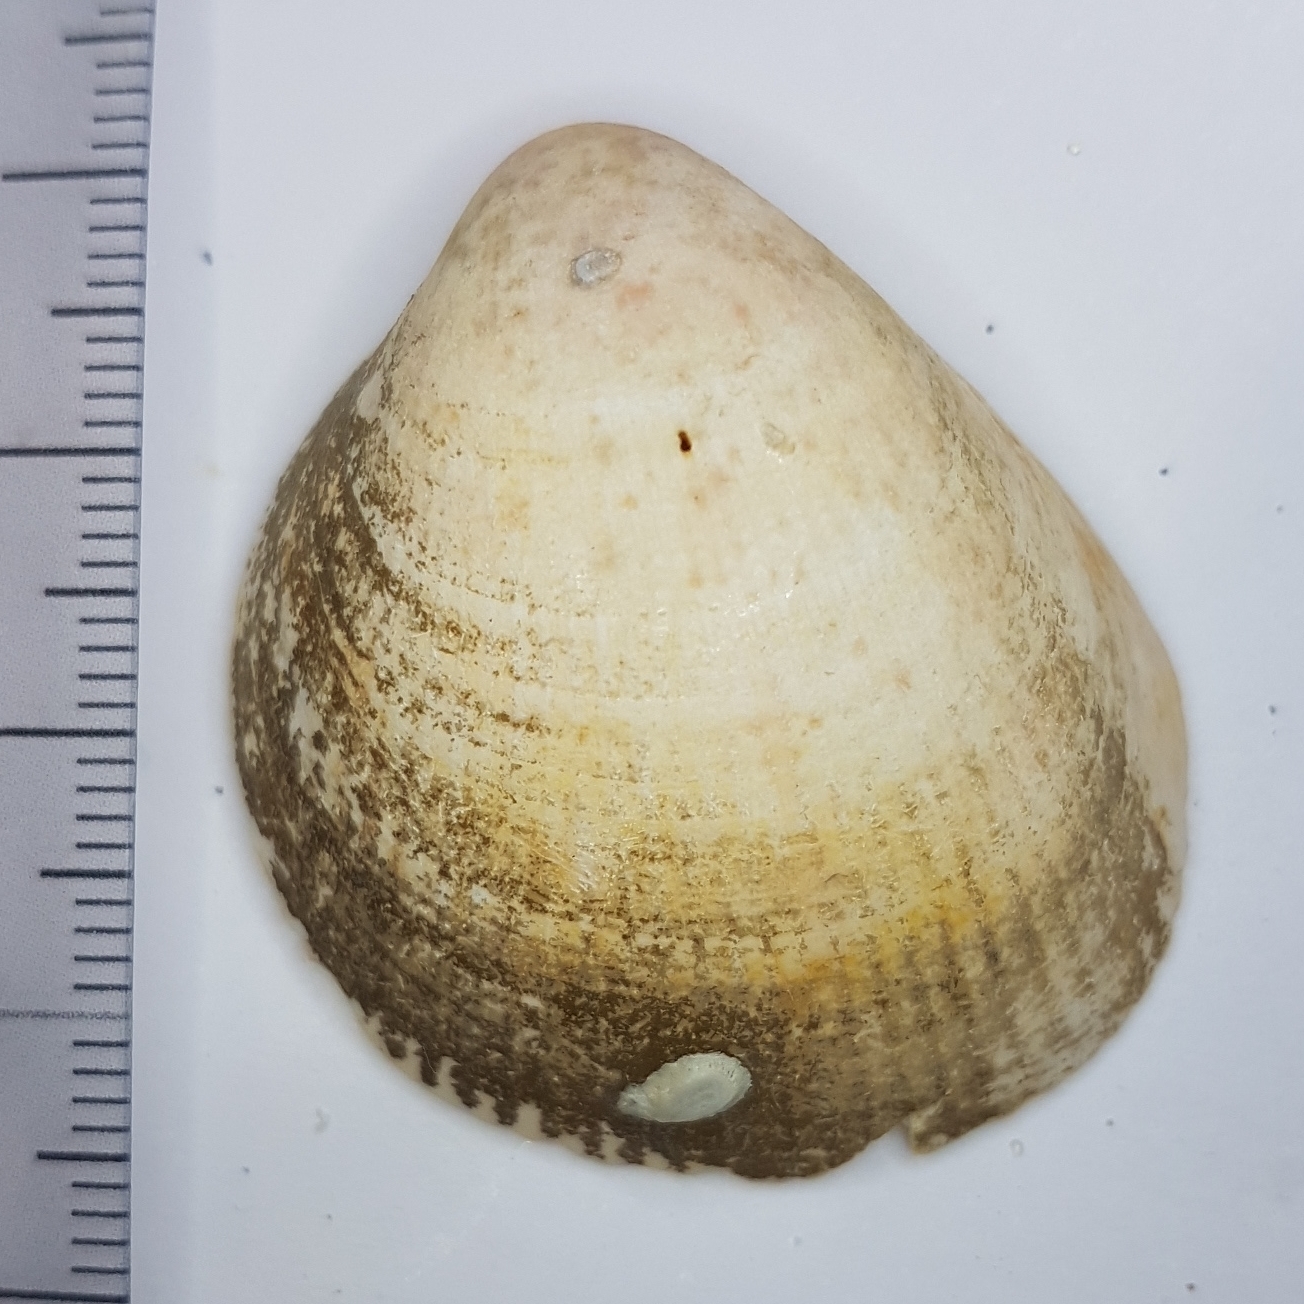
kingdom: Animalia
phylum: Mollusca
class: Bivalvia
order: Cardiida
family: Cardiidae
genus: Laevicardium
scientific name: Laevicardium oblongum
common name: Oblong cockle
